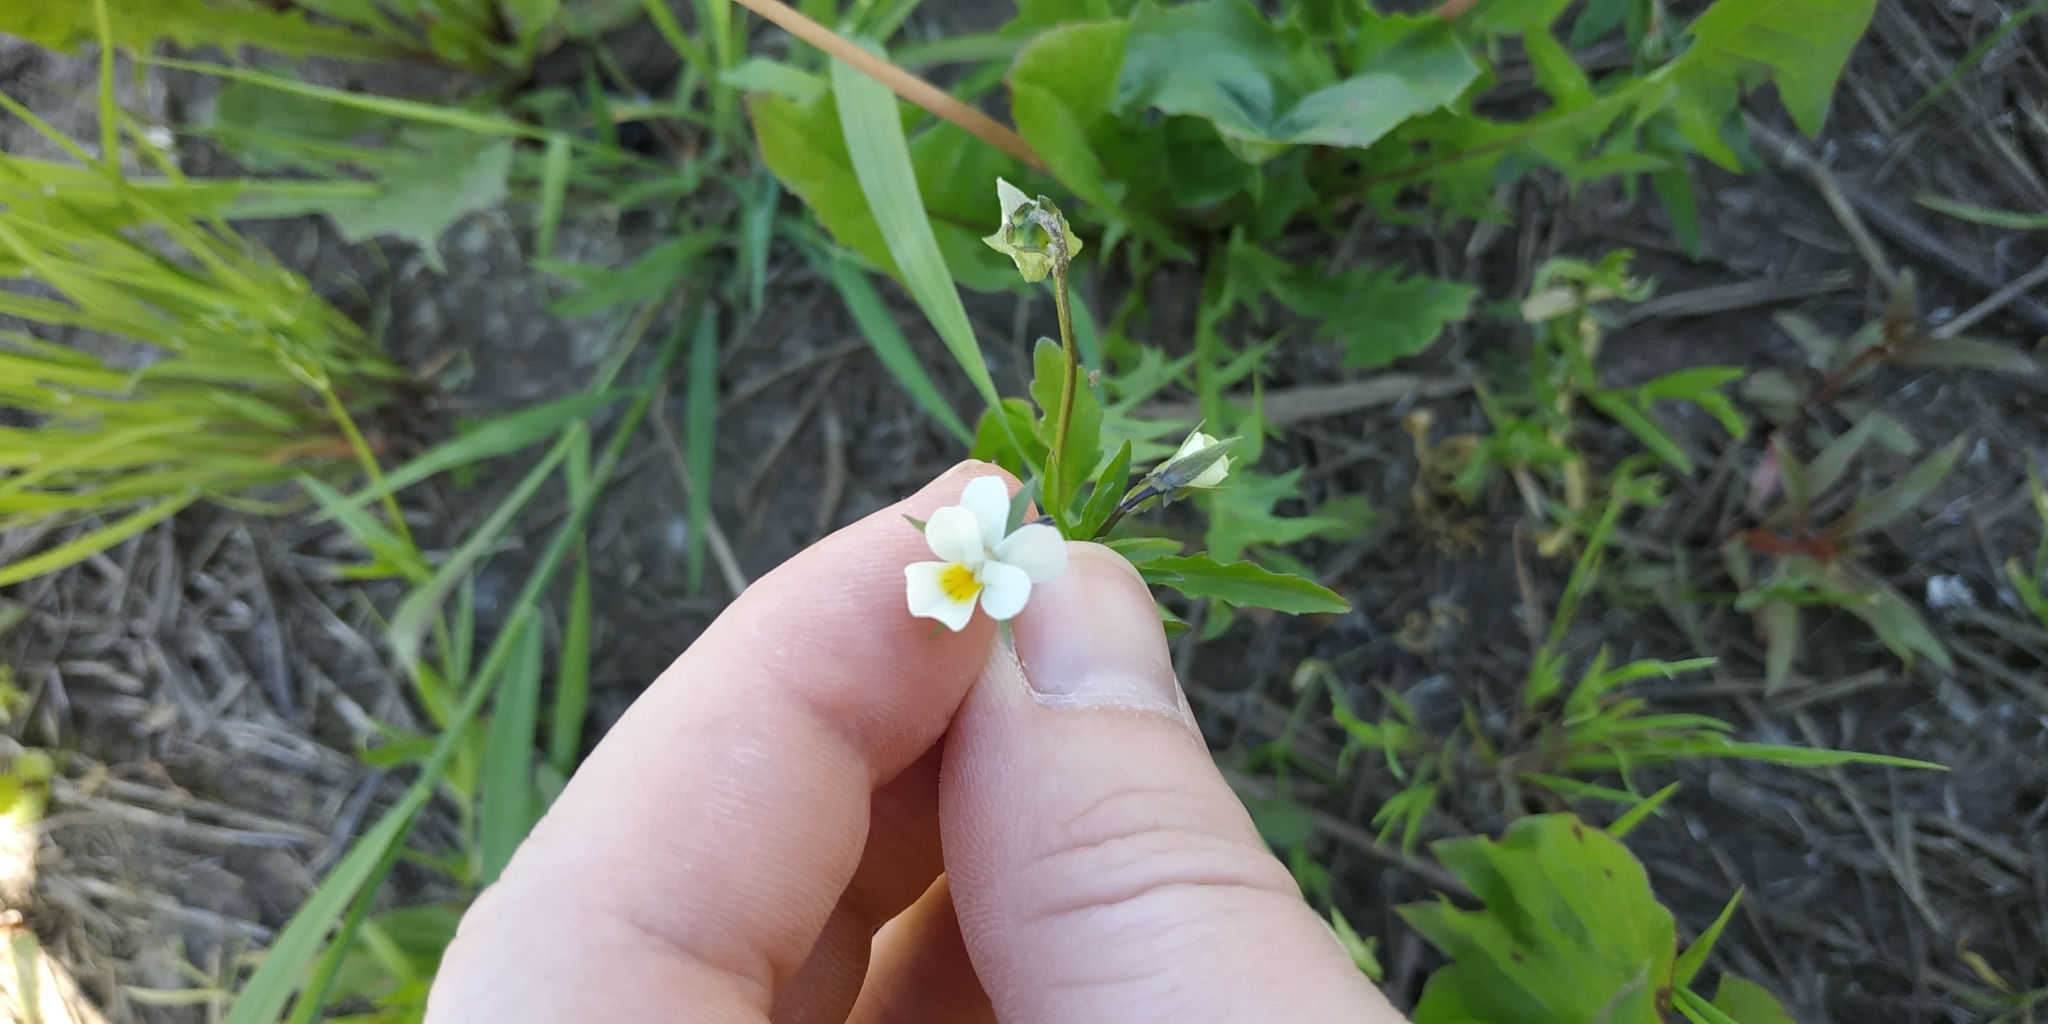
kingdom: Plantae
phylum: Tracheophyta
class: Magnoliopsida
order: Malpighiales
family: Violaceae
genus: Viola
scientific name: Viola arvensis
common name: Field pansy
